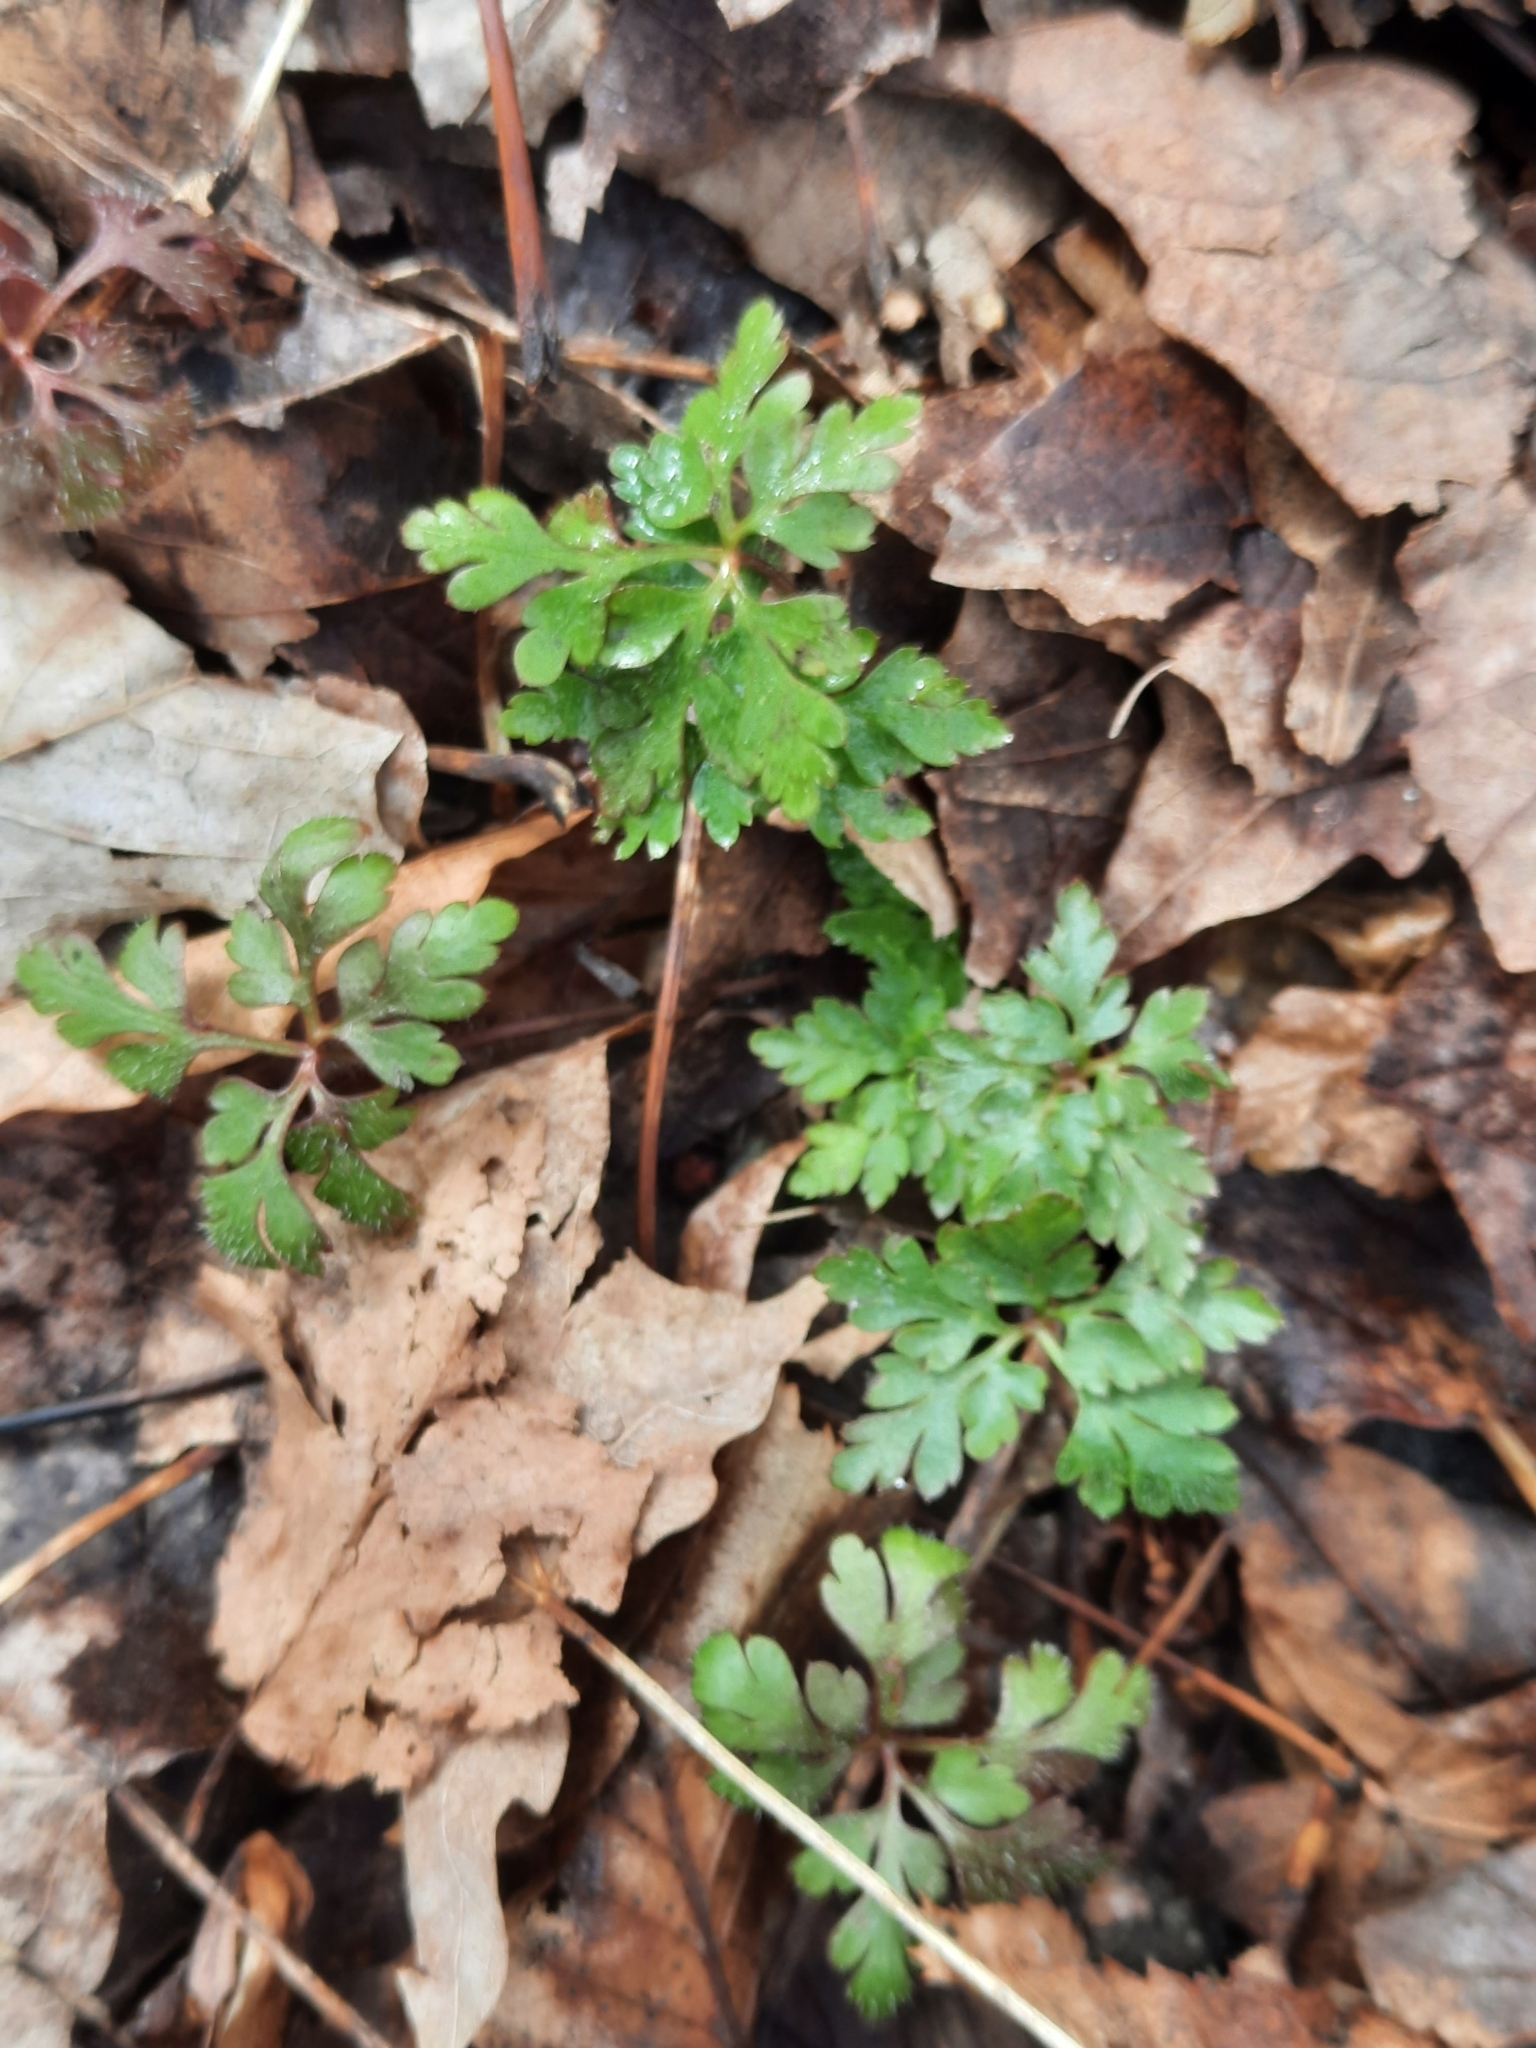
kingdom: Plantae
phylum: Tracheophyta
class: Magnoliopsida
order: Geraniales
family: Geraniaceae
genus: Geranium
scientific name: Geranium robertianum
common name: Herb-robert
